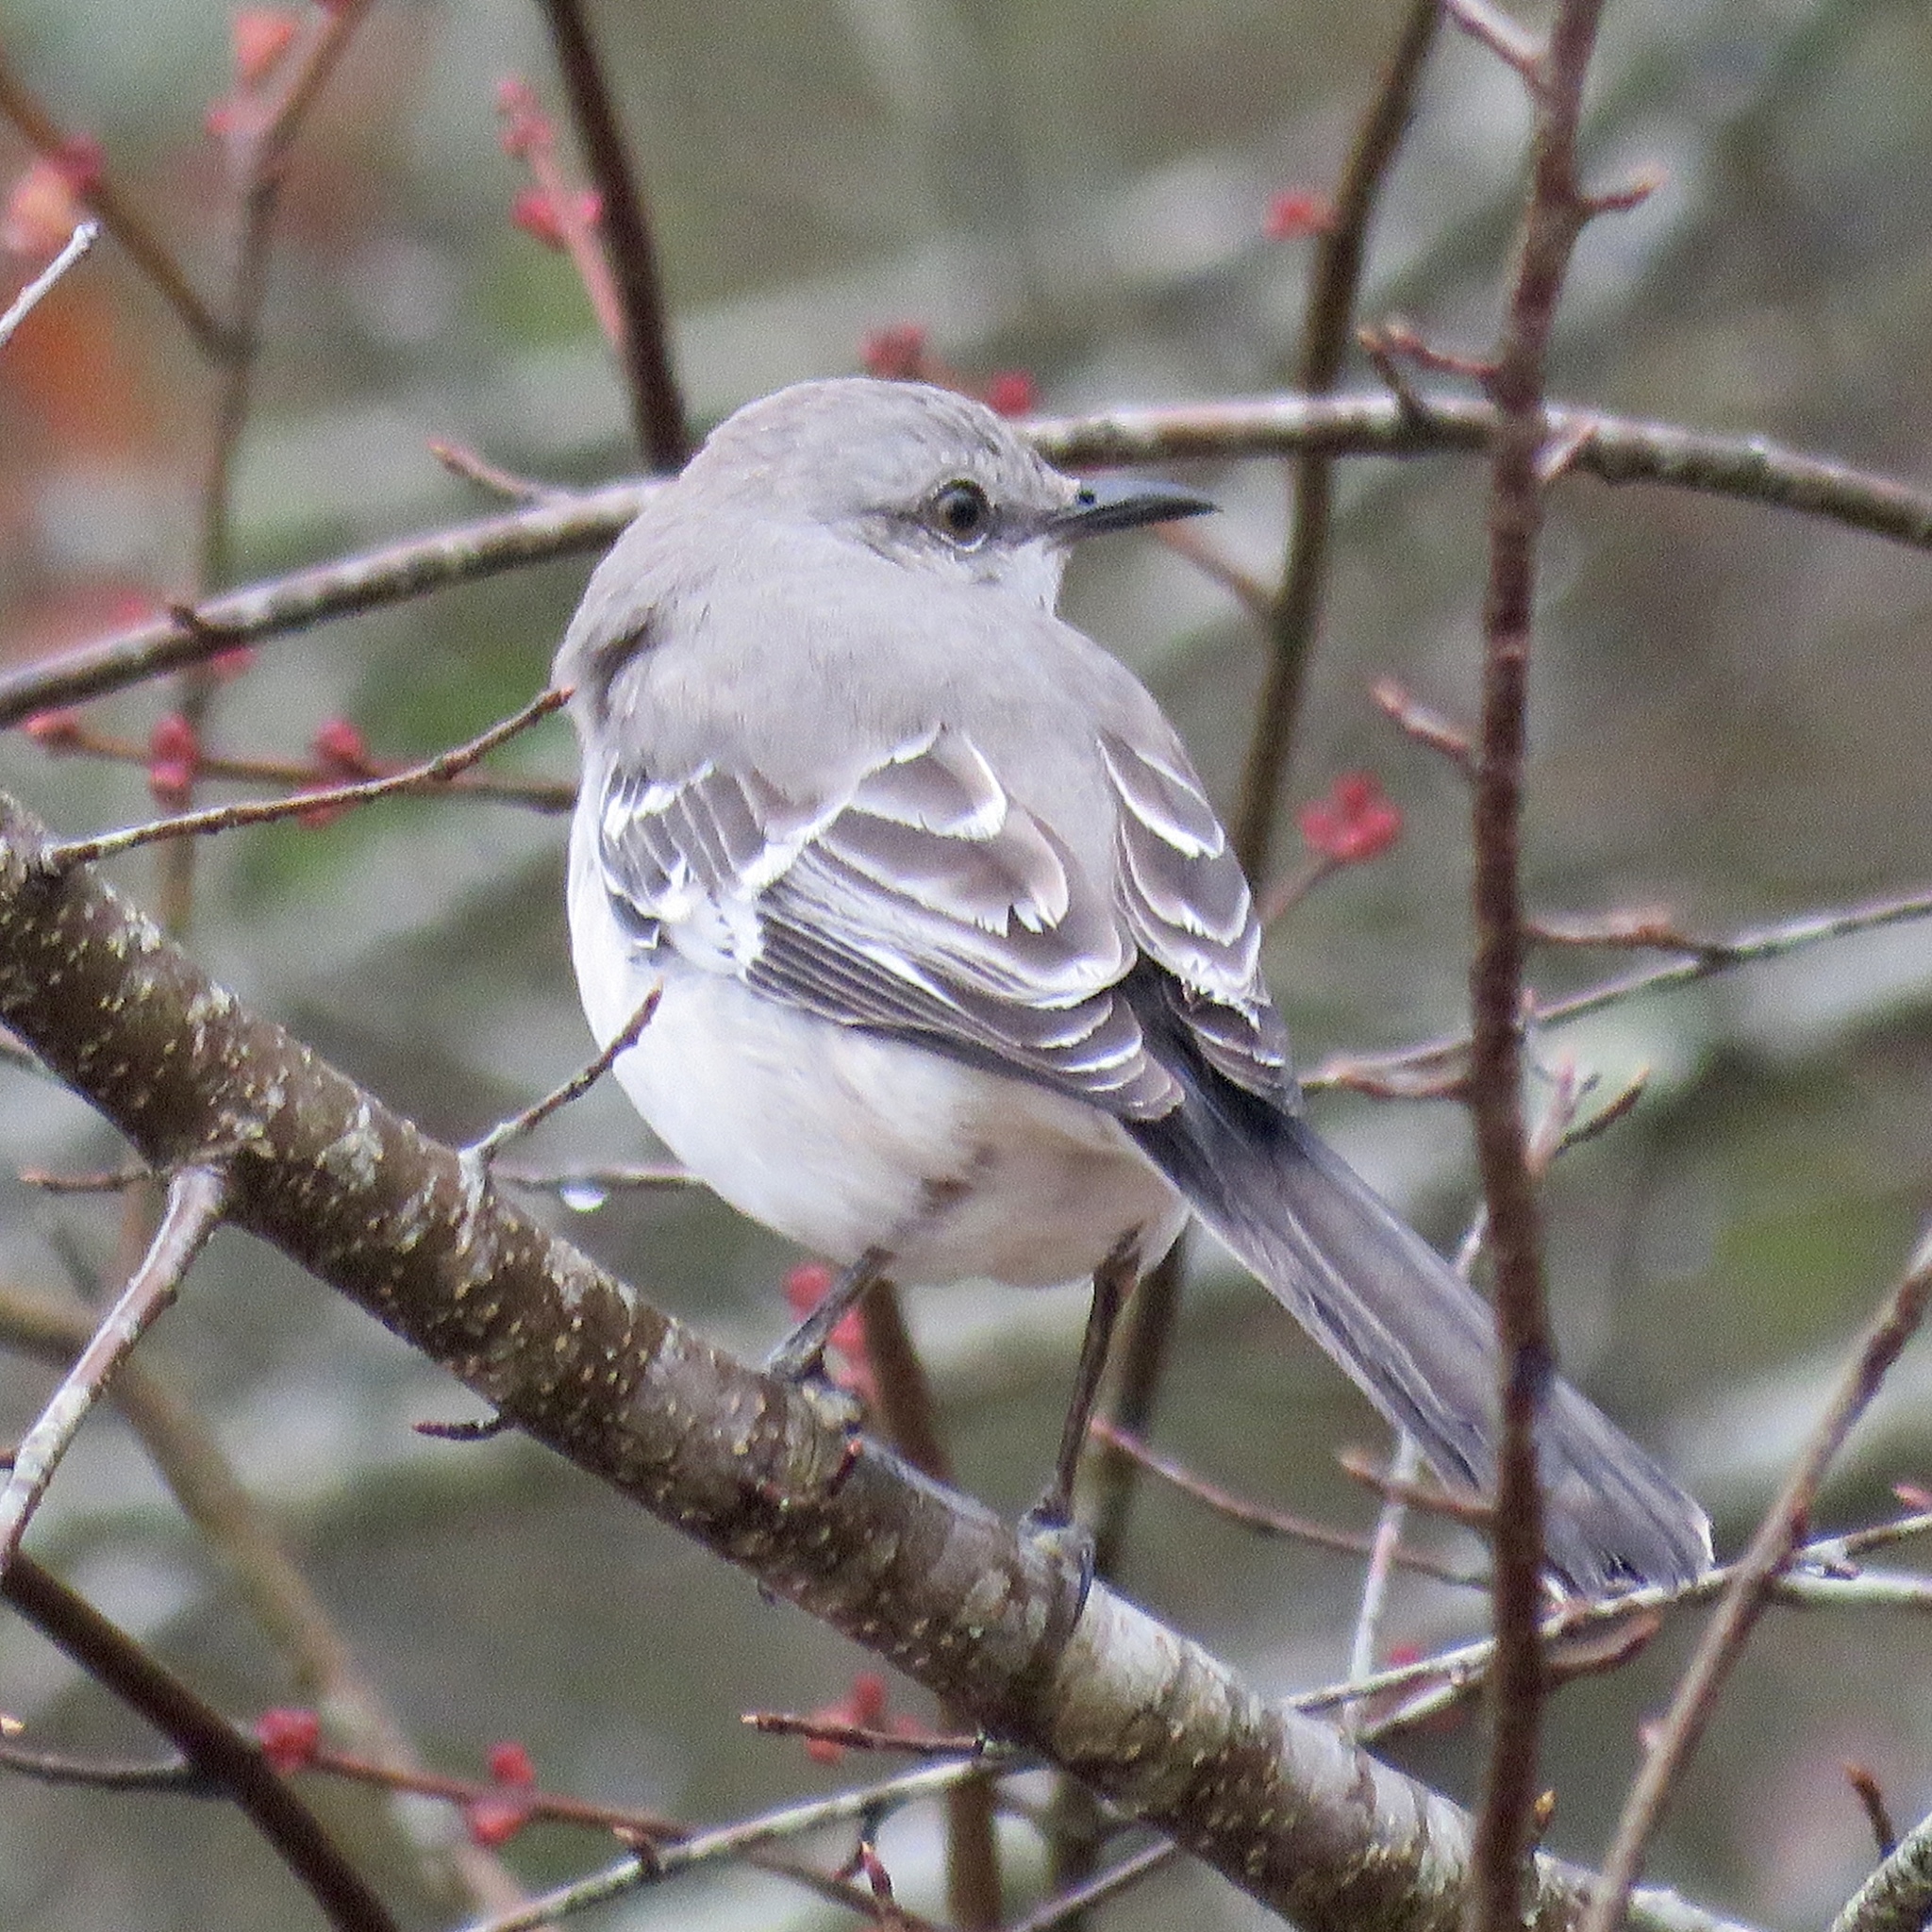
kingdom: Animalia
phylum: Chordata
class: Aves
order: Passeriformes
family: Mimidae
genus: Mimus
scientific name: Mimus polyglottos
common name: Northern mockingbird
